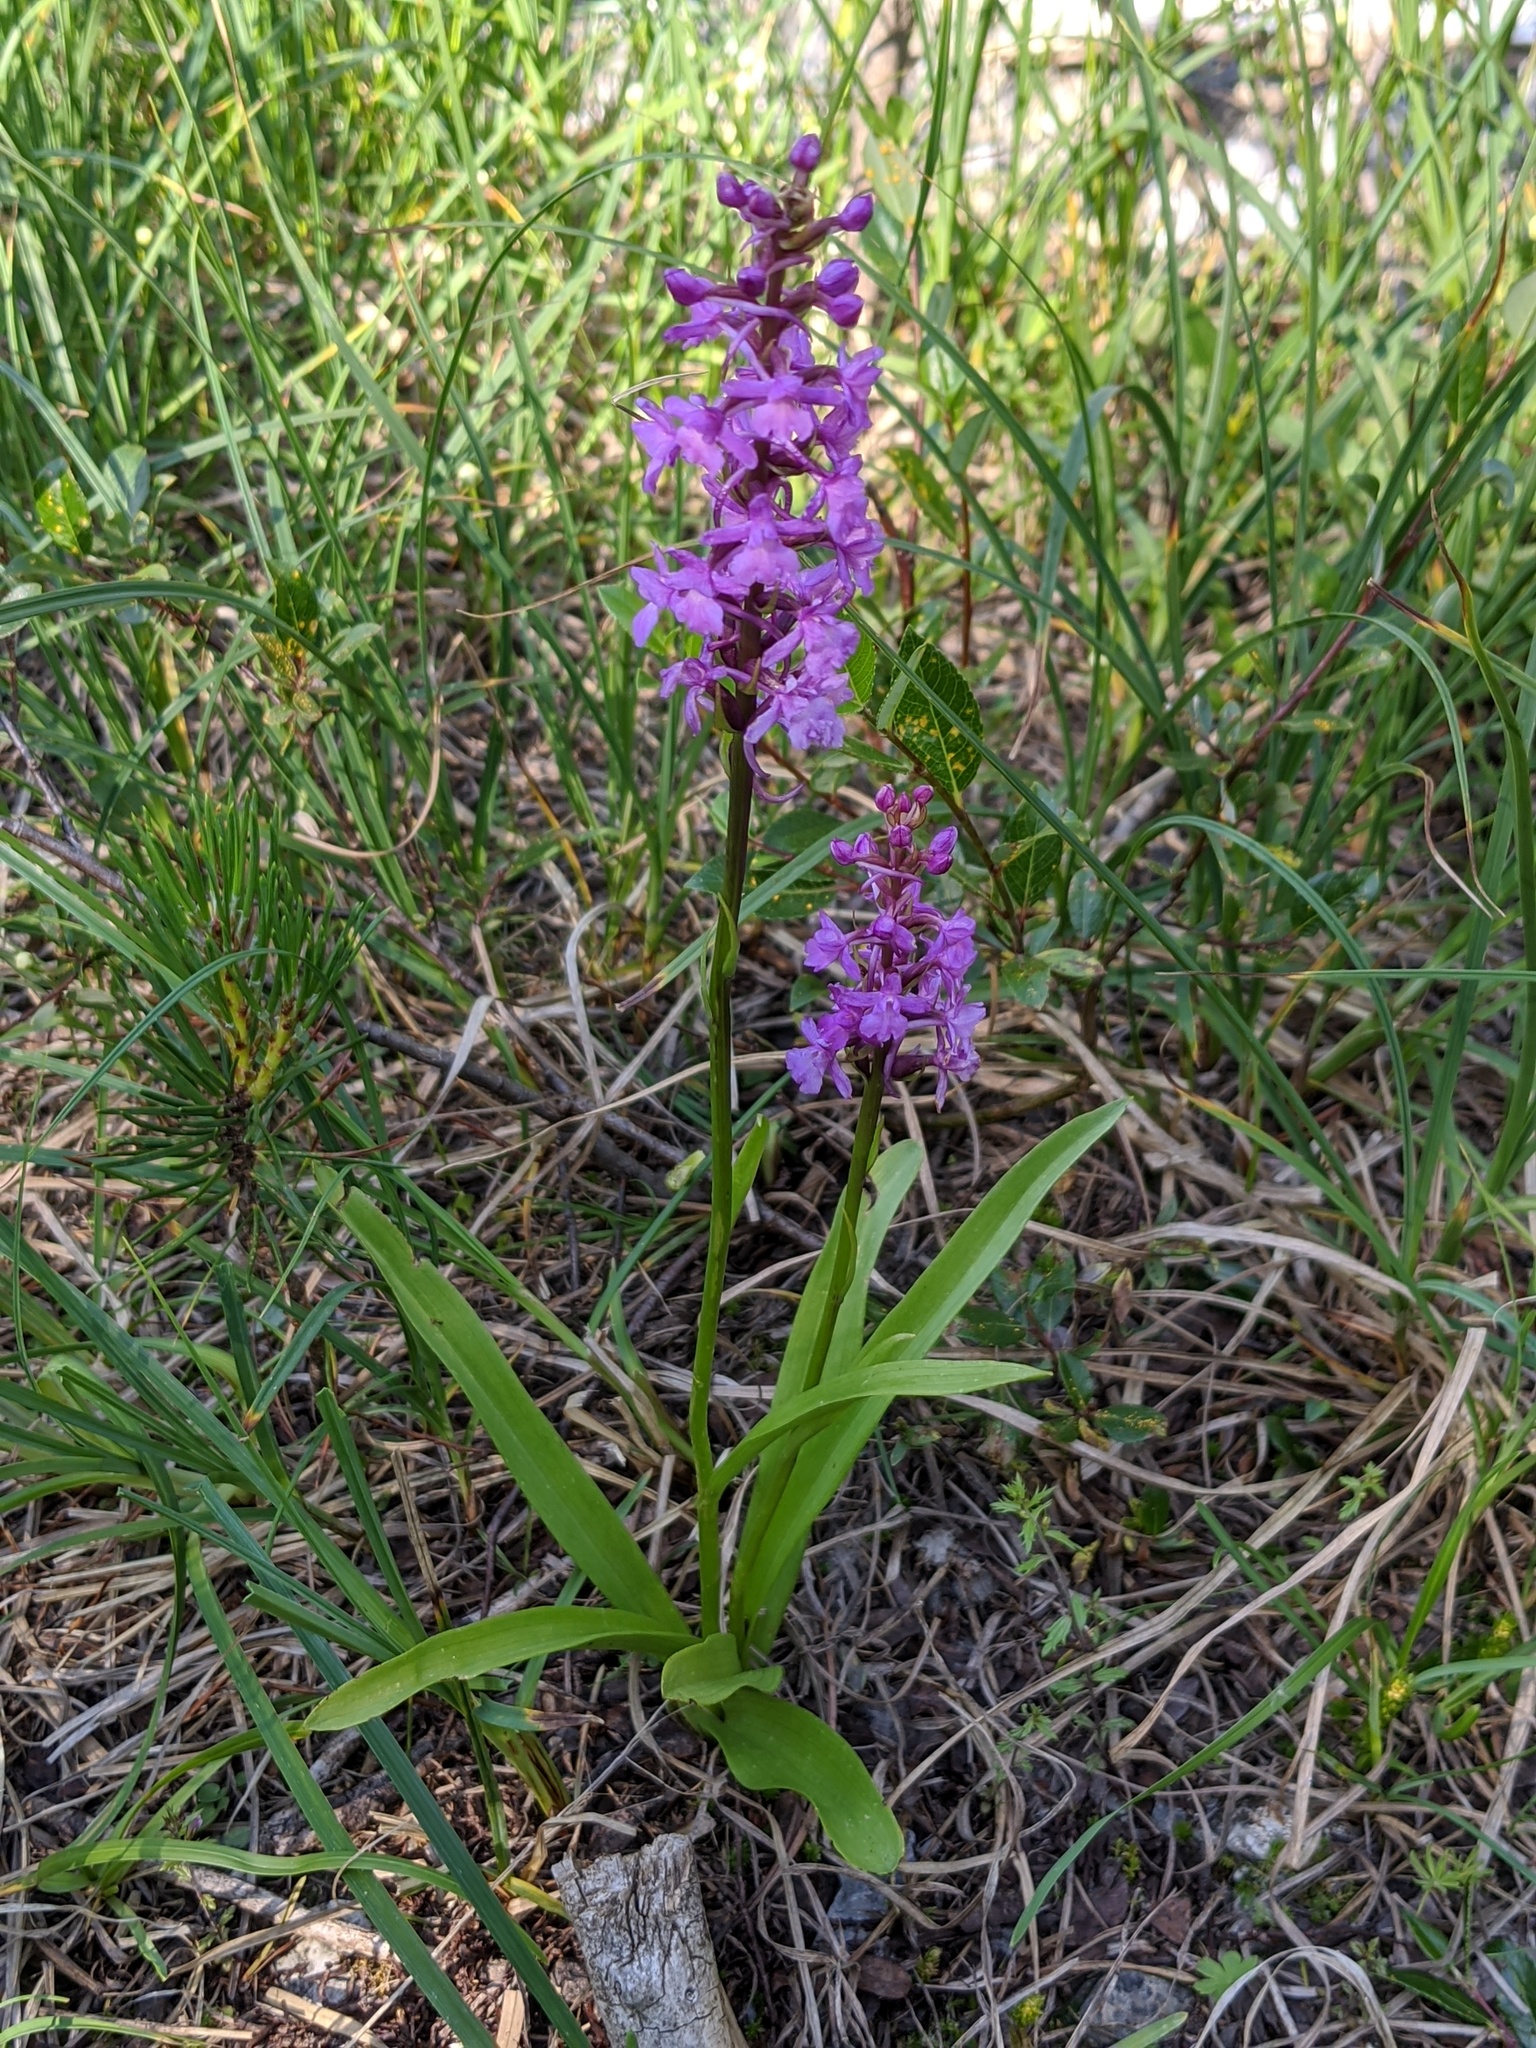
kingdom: Plantae
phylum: Tracheophyta
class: Liliopsida
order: Asparagales
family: Orchidaceae
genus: Gymnadenia
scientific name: Gymnadenia conopsea
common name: Fragrant orchid
